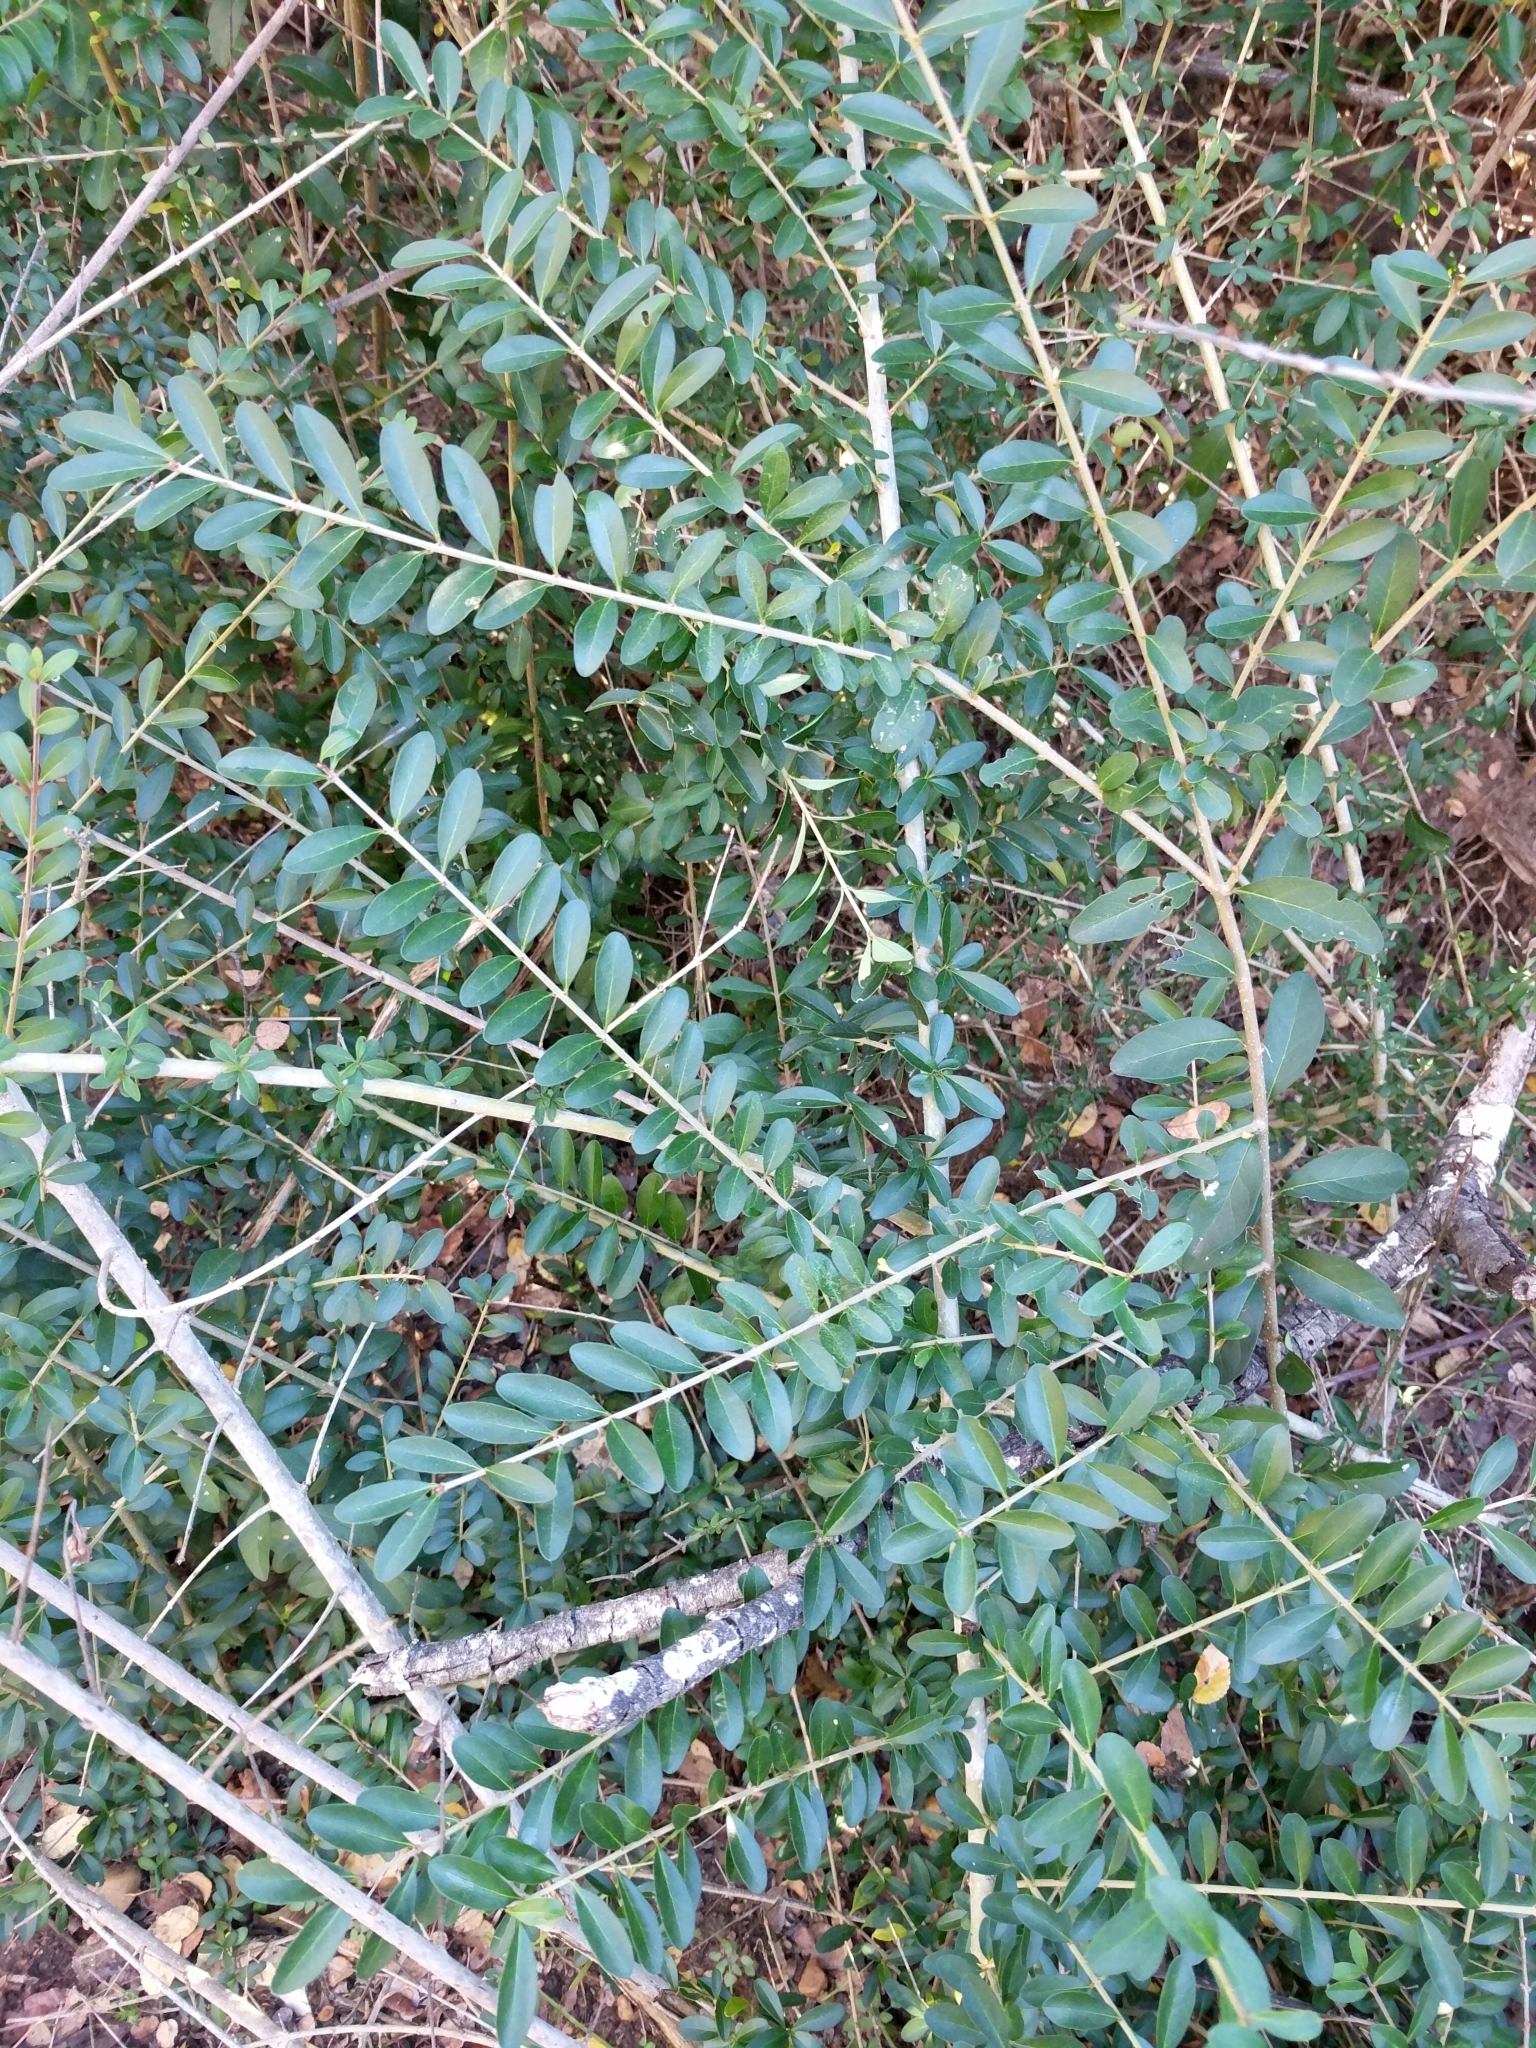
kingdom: Plantae
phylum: Tracheophyta
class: Magnoliopsida
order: Lamiales
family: Oleaceae
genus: Ligustrum
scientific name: Ligustrum quihoui
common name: Waxyleaf privet
